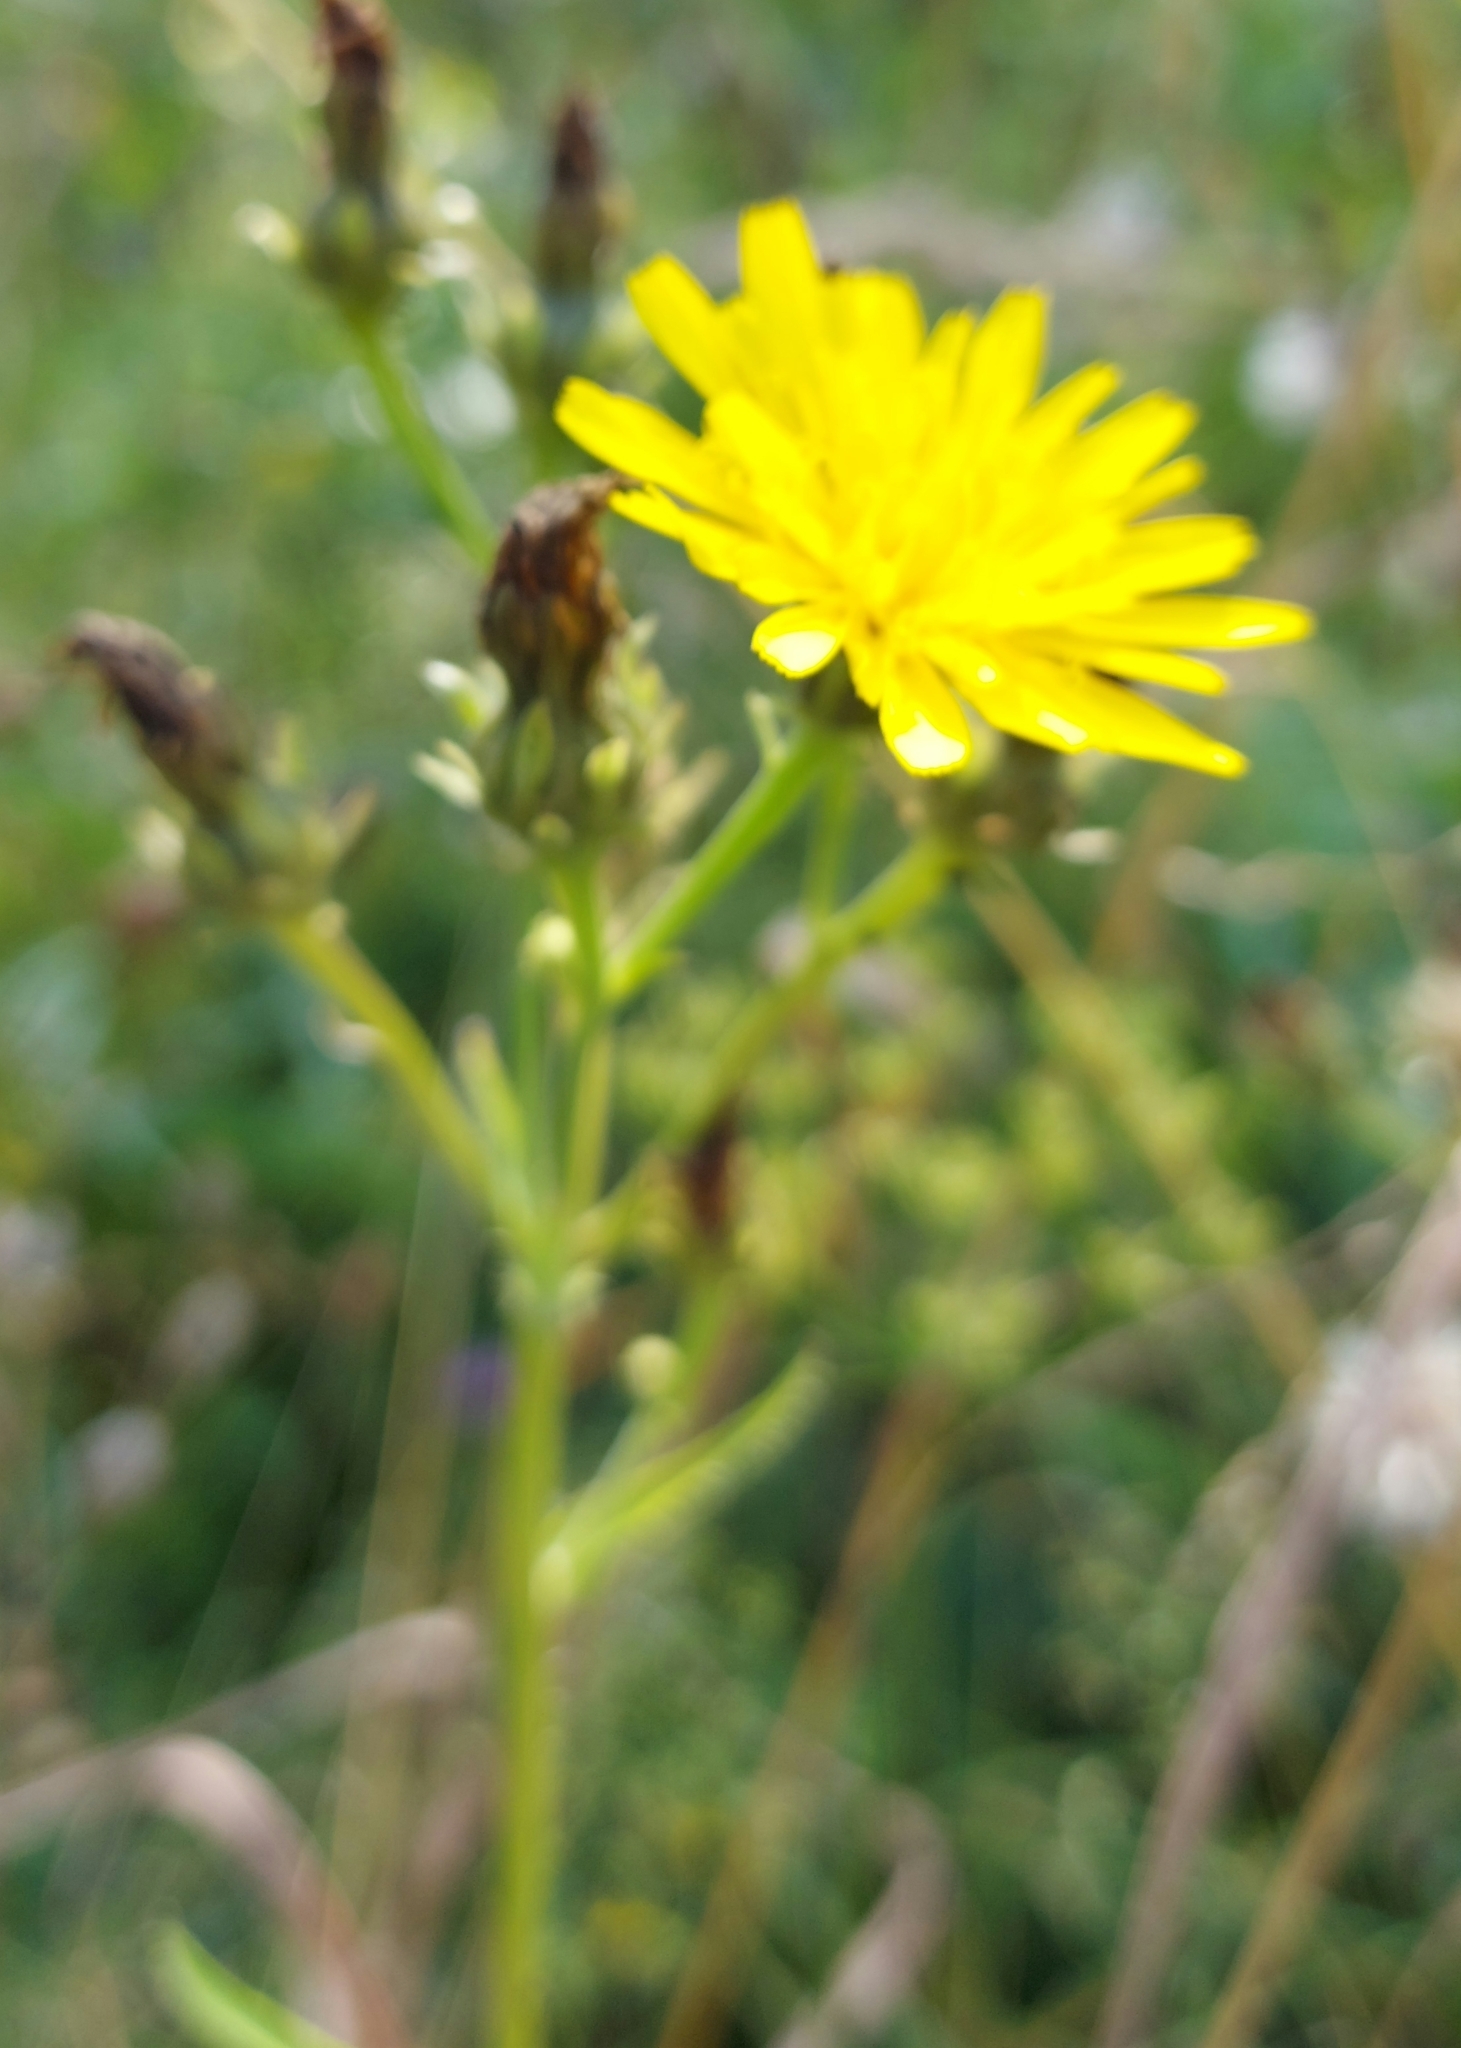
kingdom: Plantae
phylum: Tracheophyta
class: Magnoliopsida
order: Asterales
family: Asteraceae
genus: Picris
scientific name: Picris hieracioides
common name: Hawkweed oxtongue
